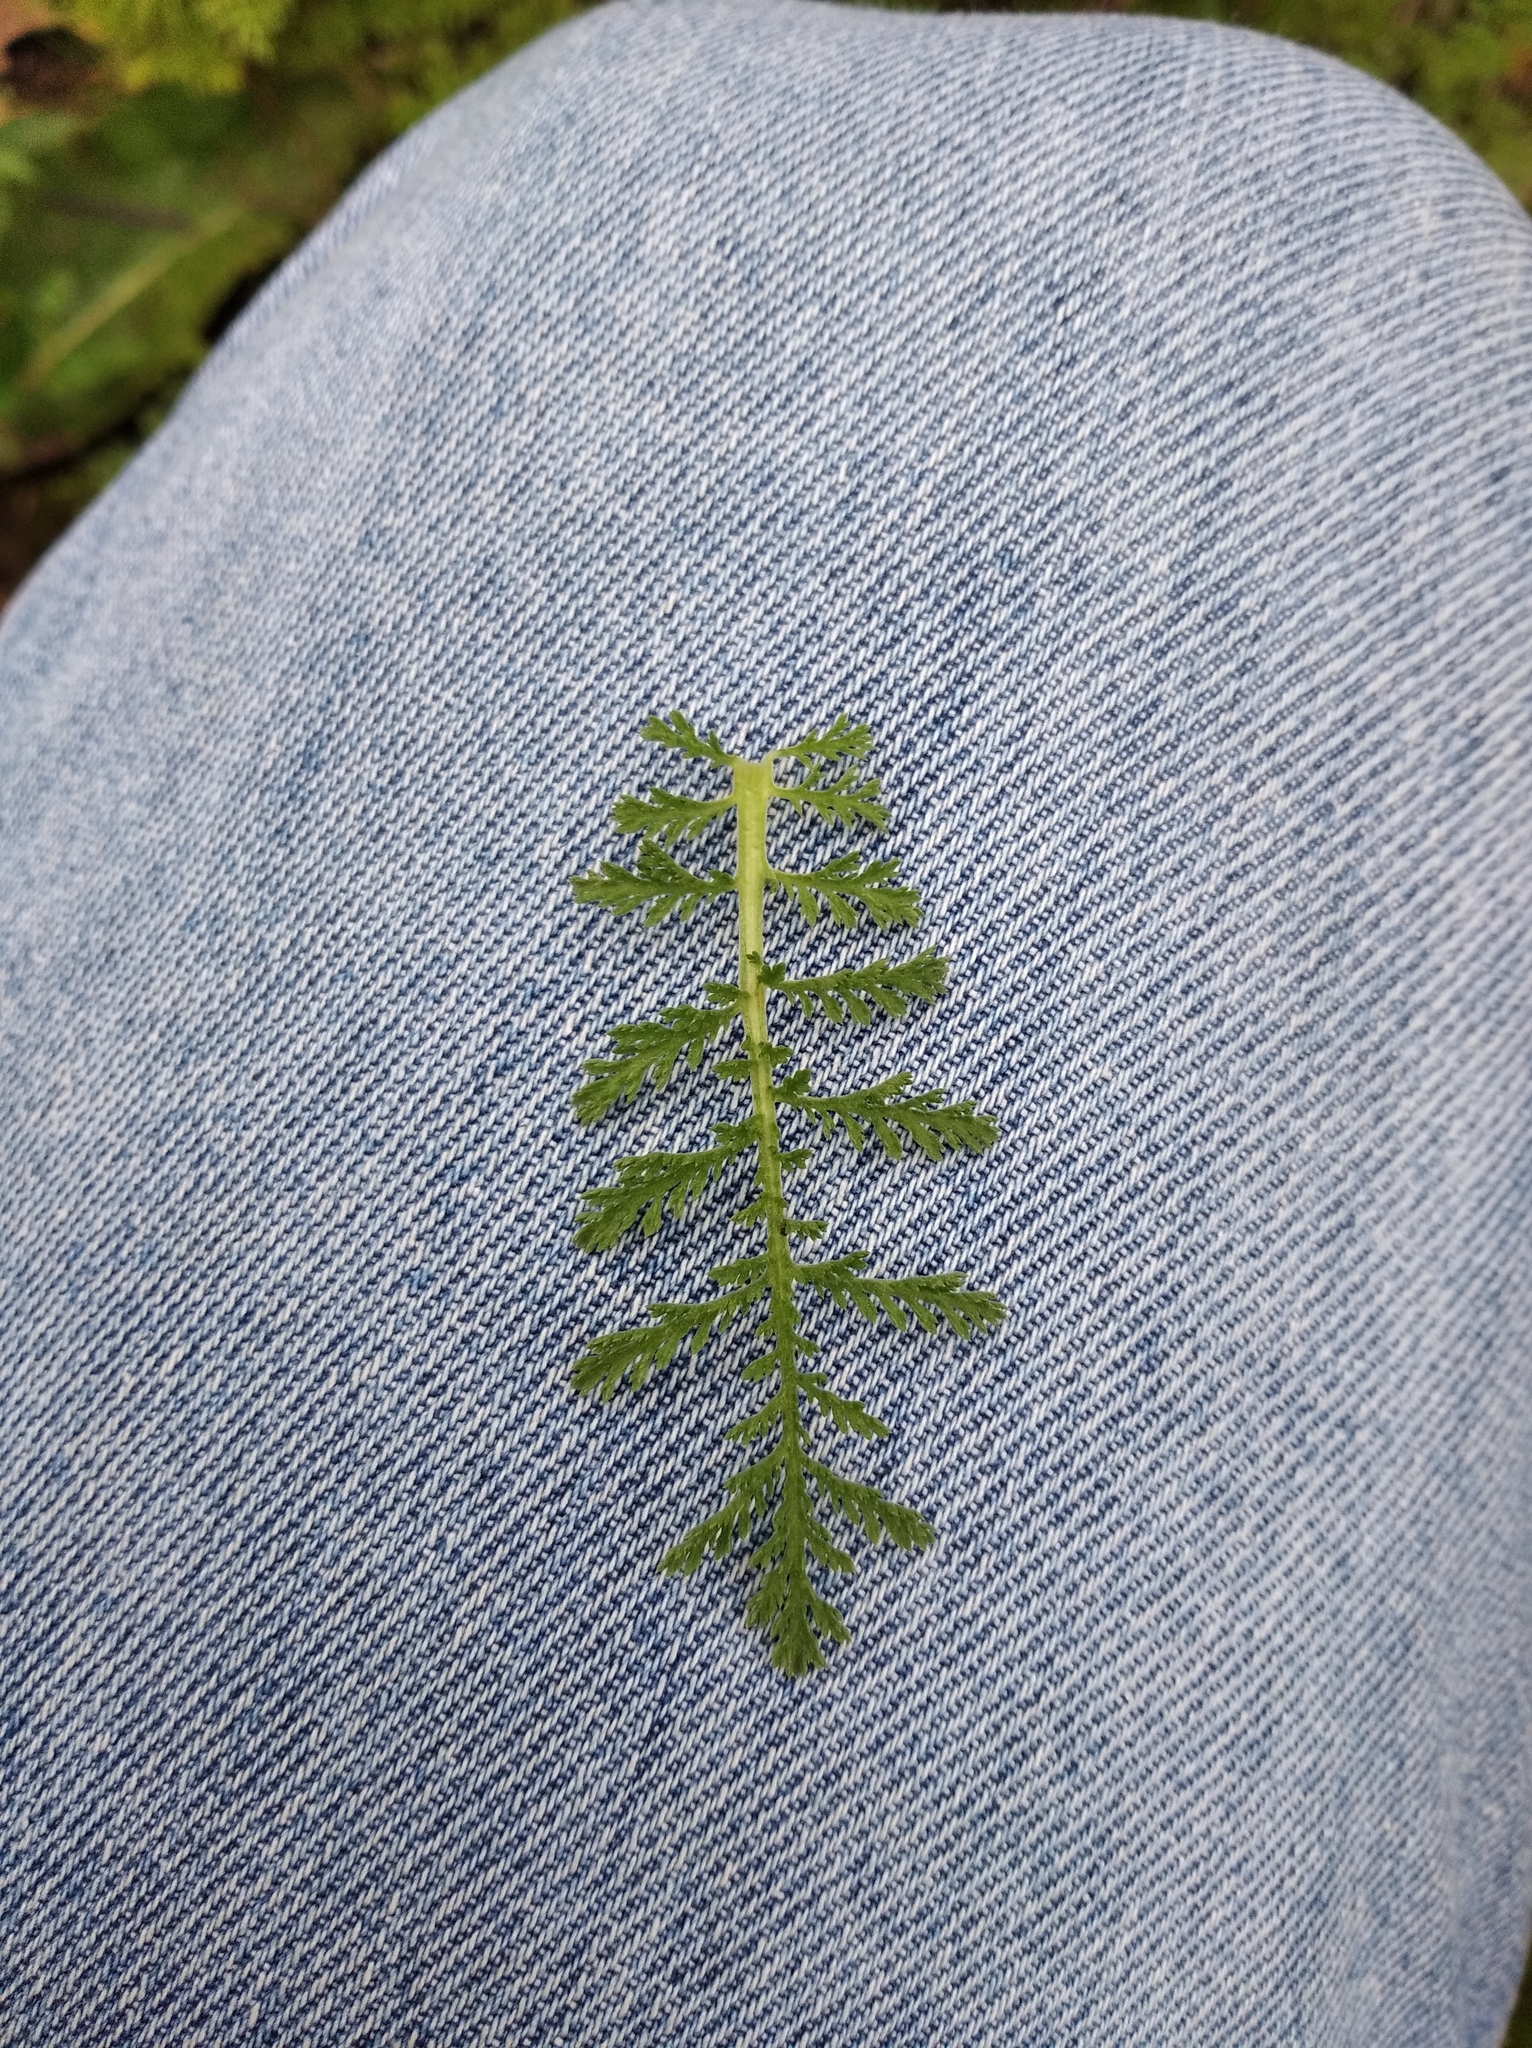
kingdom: Plantae
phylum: Tracheophyta
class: Magnoliopsida
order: Asterales
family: Asteraceae
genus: Achillea
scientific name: Achillea nobilis
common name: Noble yarrow
